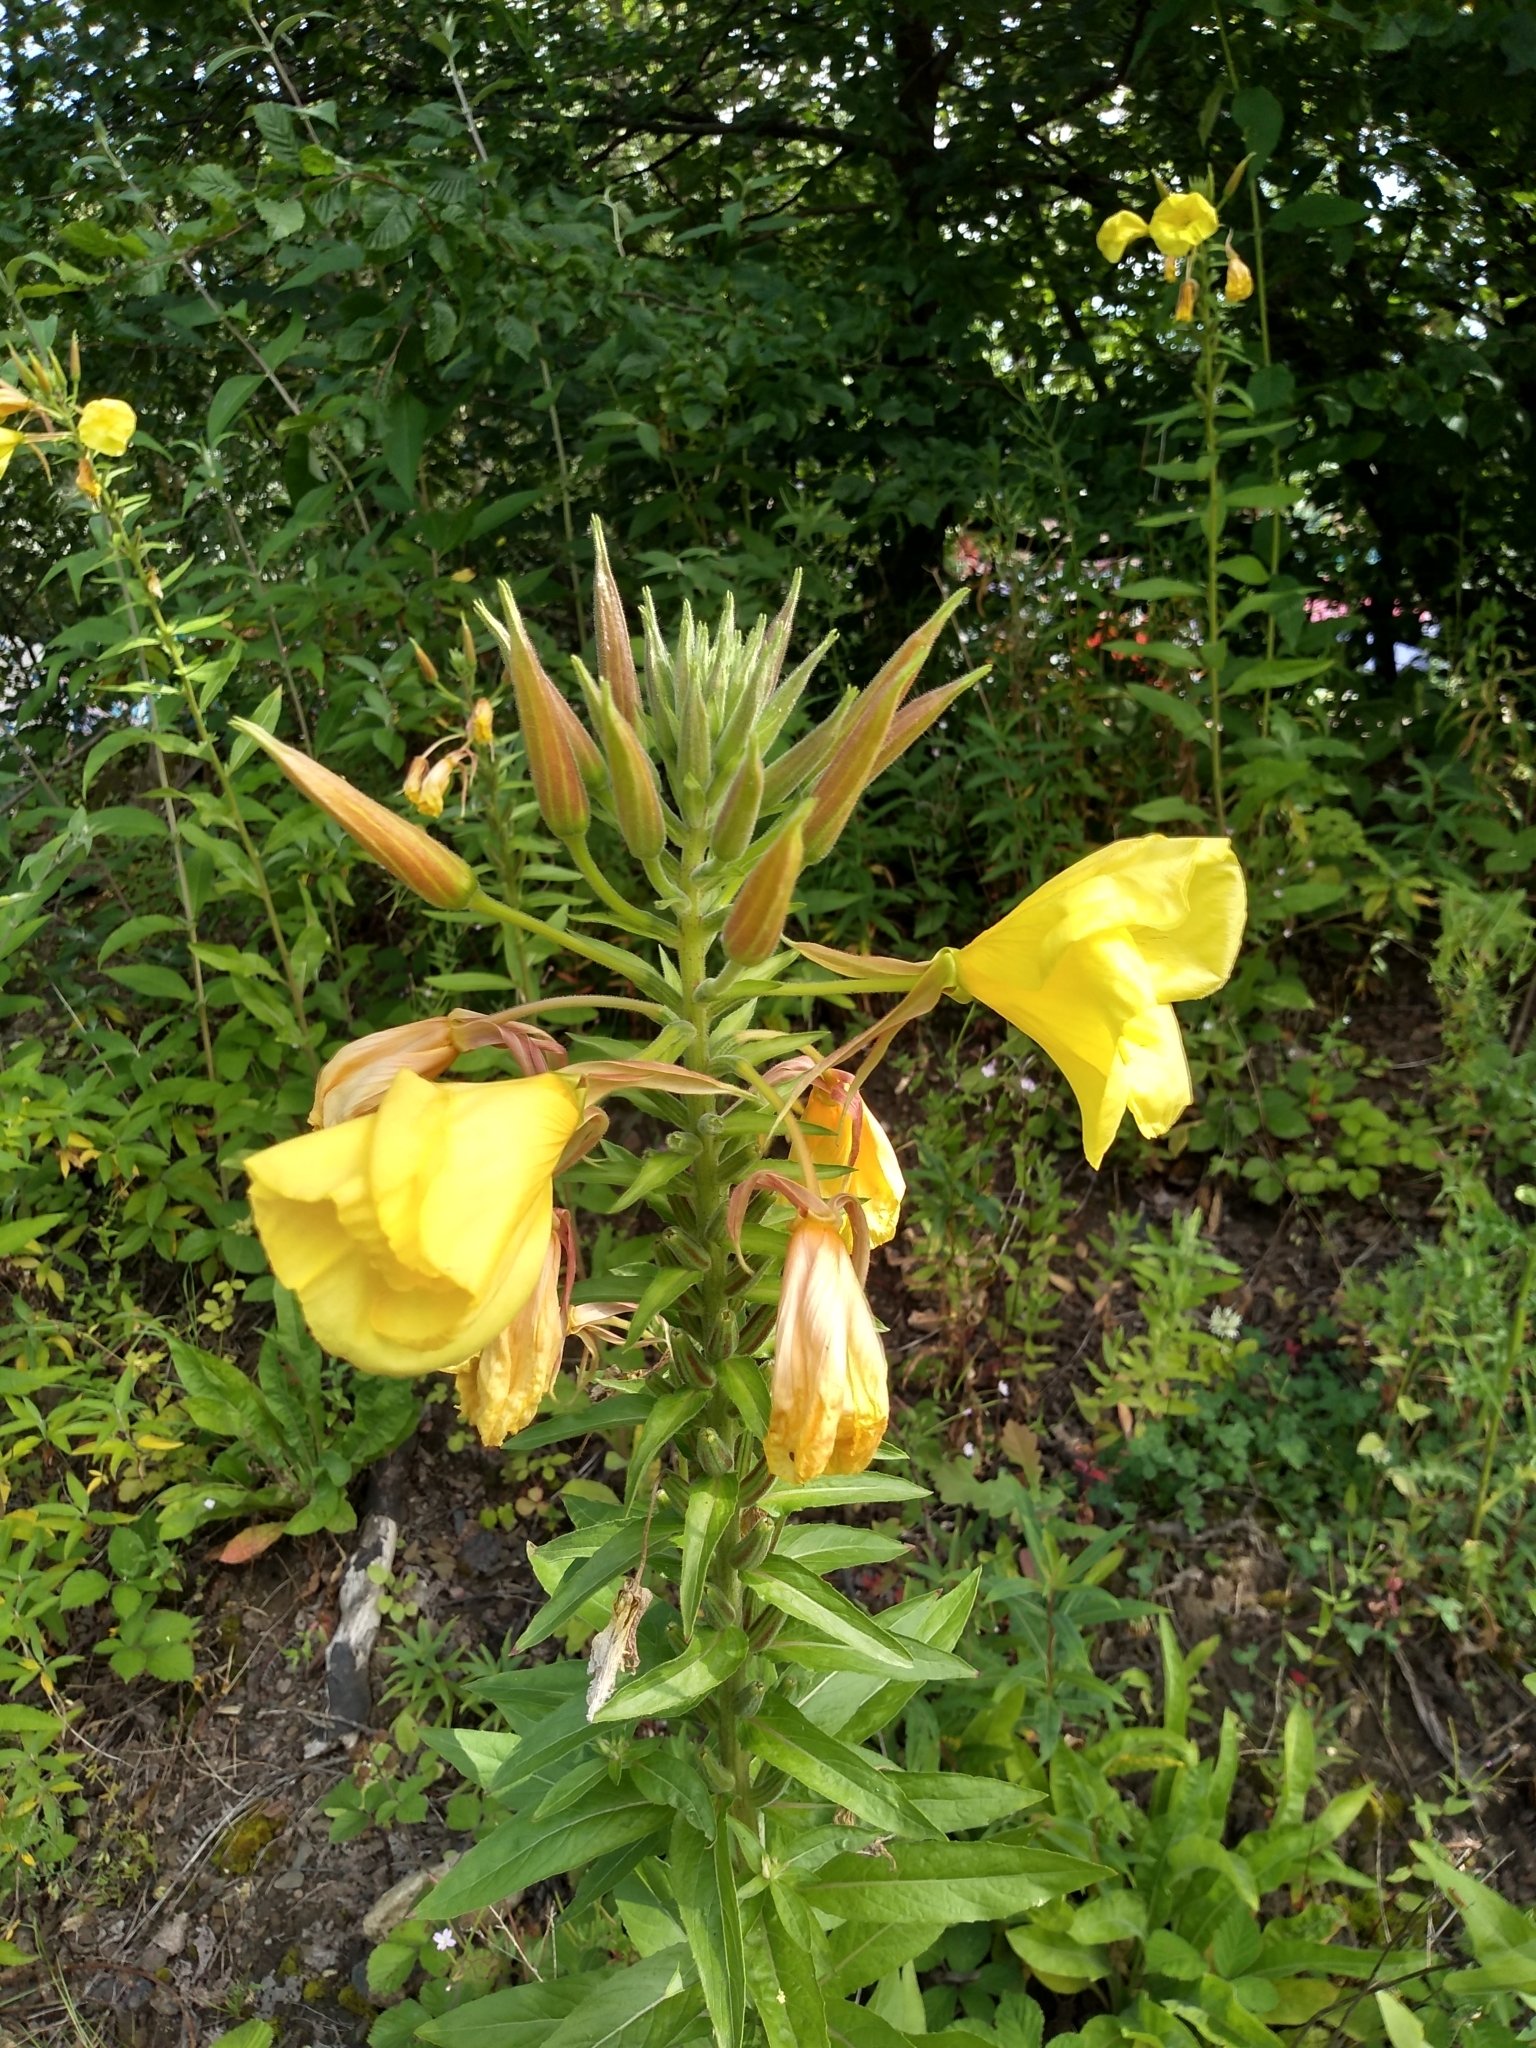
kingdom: Plantae
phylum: Tracheophyta
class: Magnoliopsida
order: Myrtales
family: Onagraceae
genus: Oenothera
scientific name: Oenothera glazioviana
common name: Large-flowered evening-primrose
